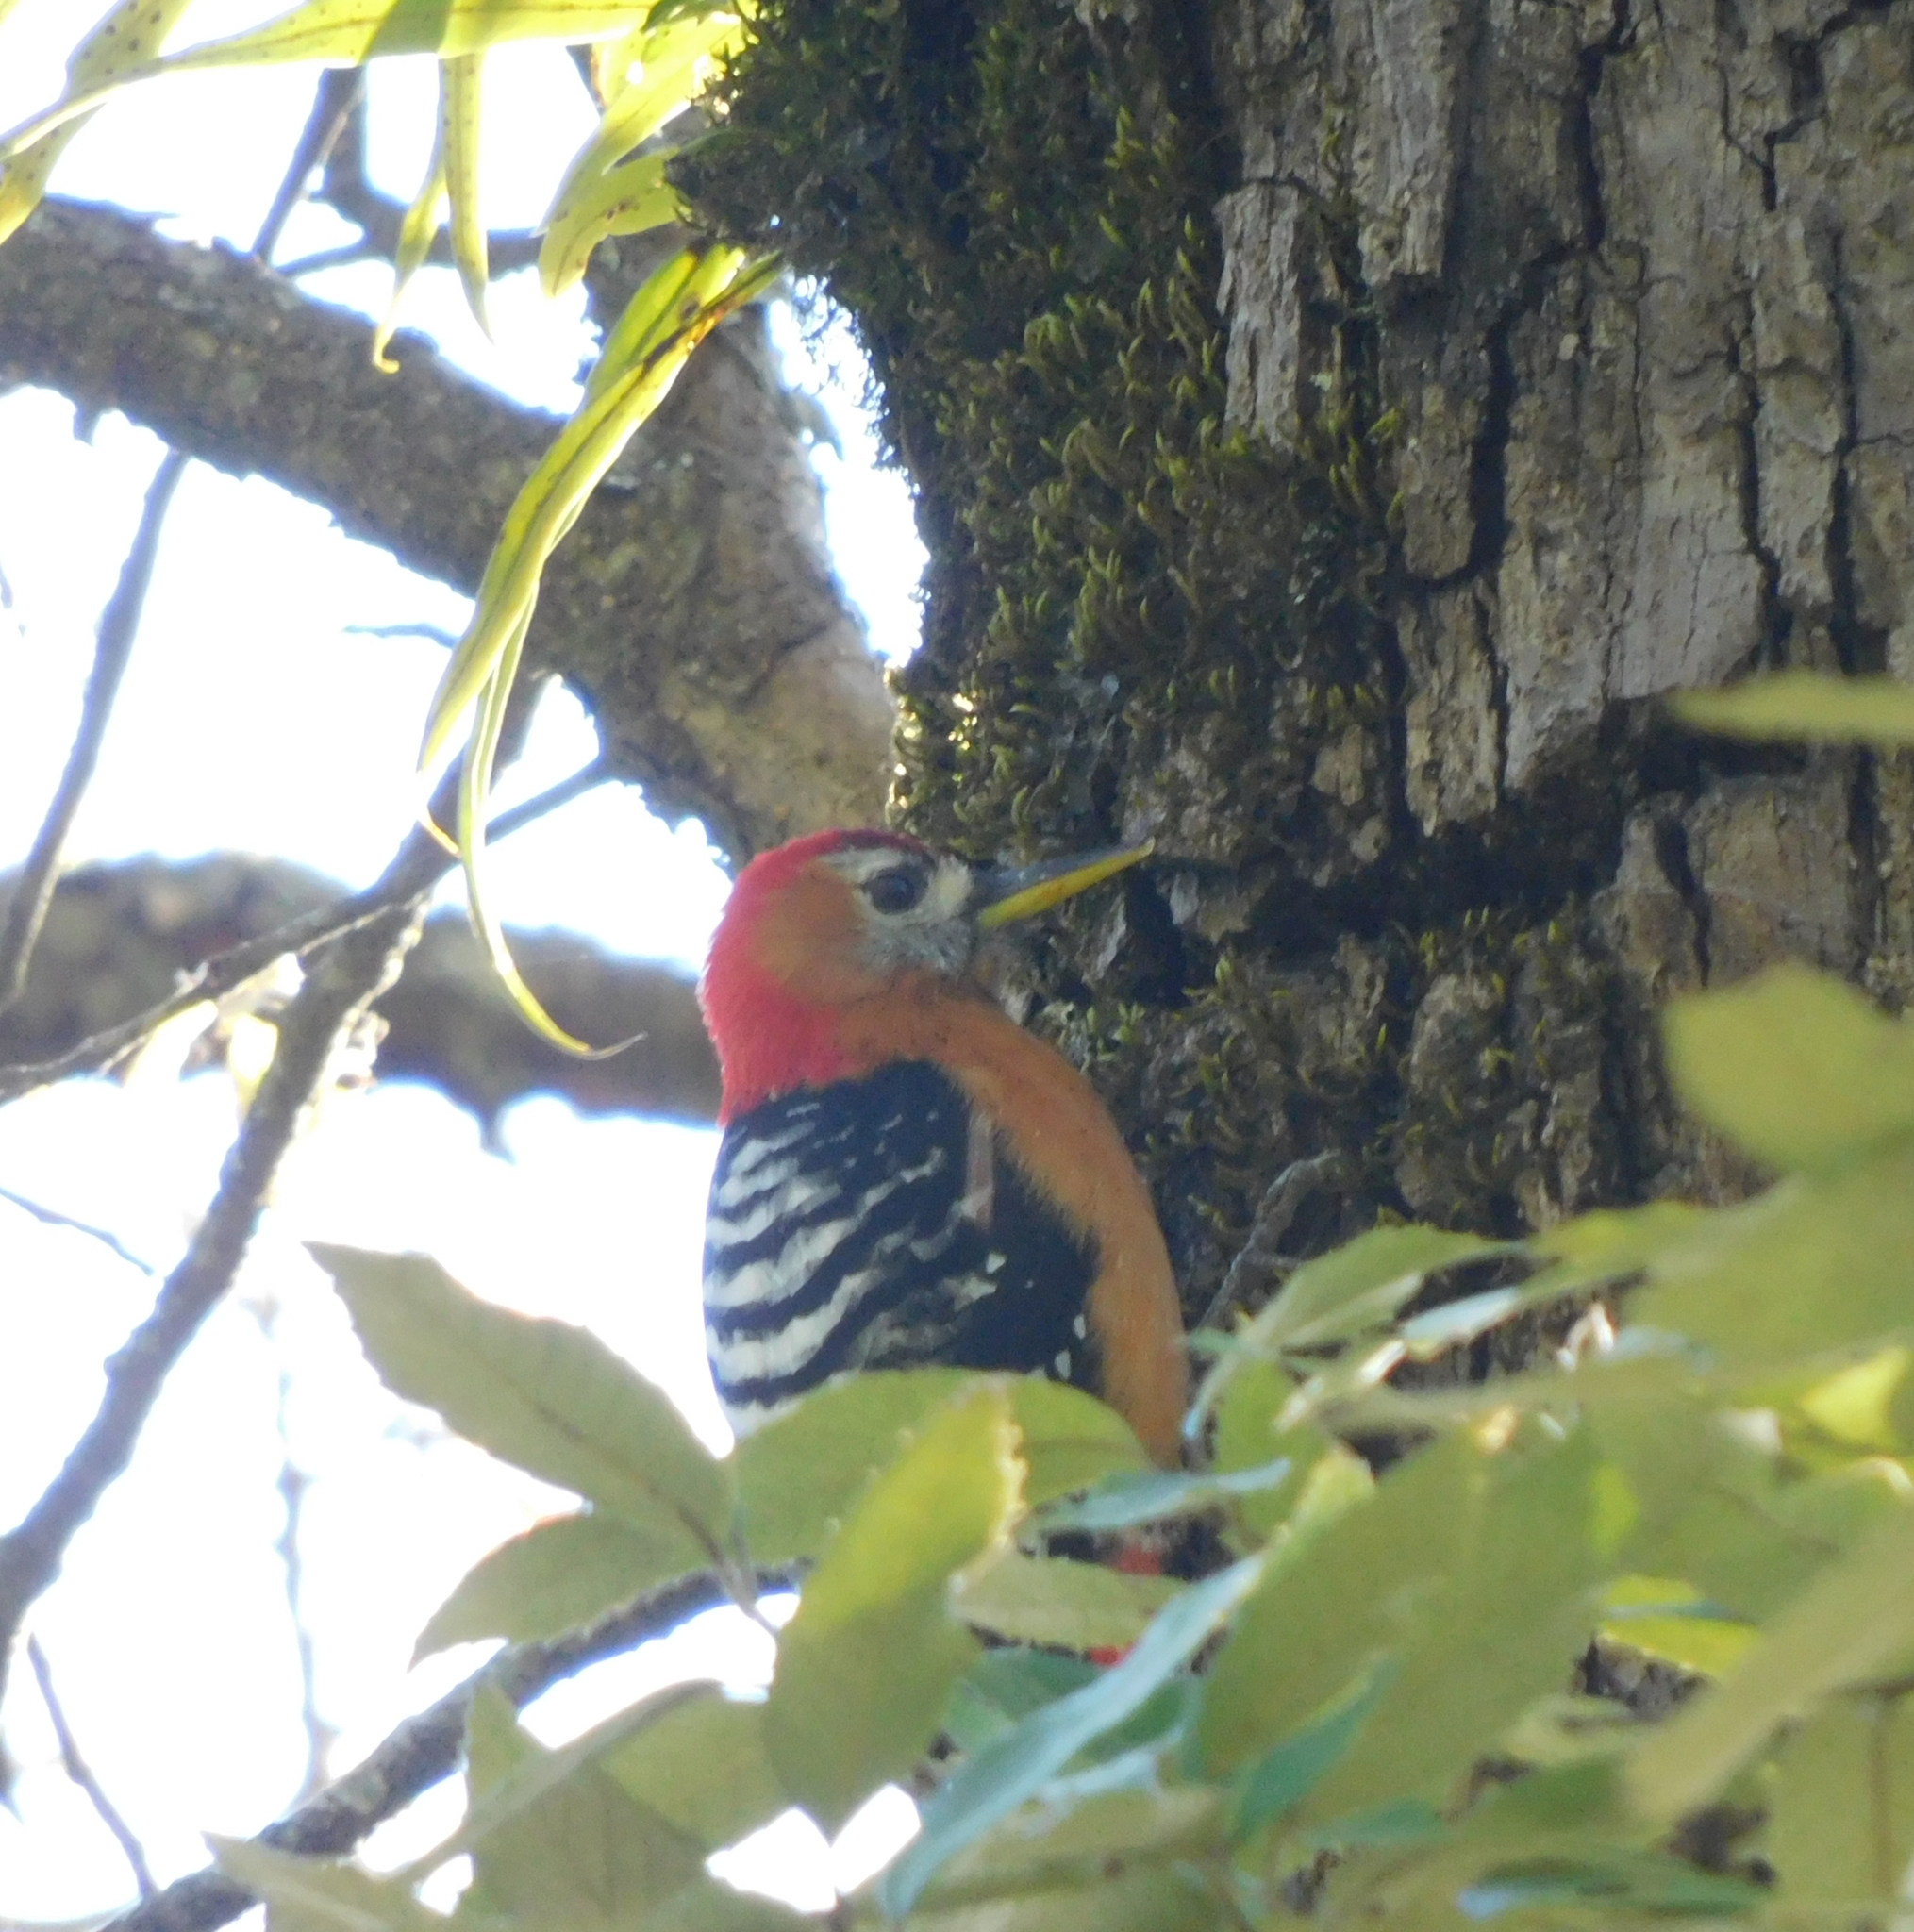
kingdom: Animalia
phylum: Chordata
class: Aves
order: Piciformes
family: Picidae
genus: Dendrocopos
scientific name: Dendrocopos hyperythrus
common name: Rufous-bellied woodpecker
